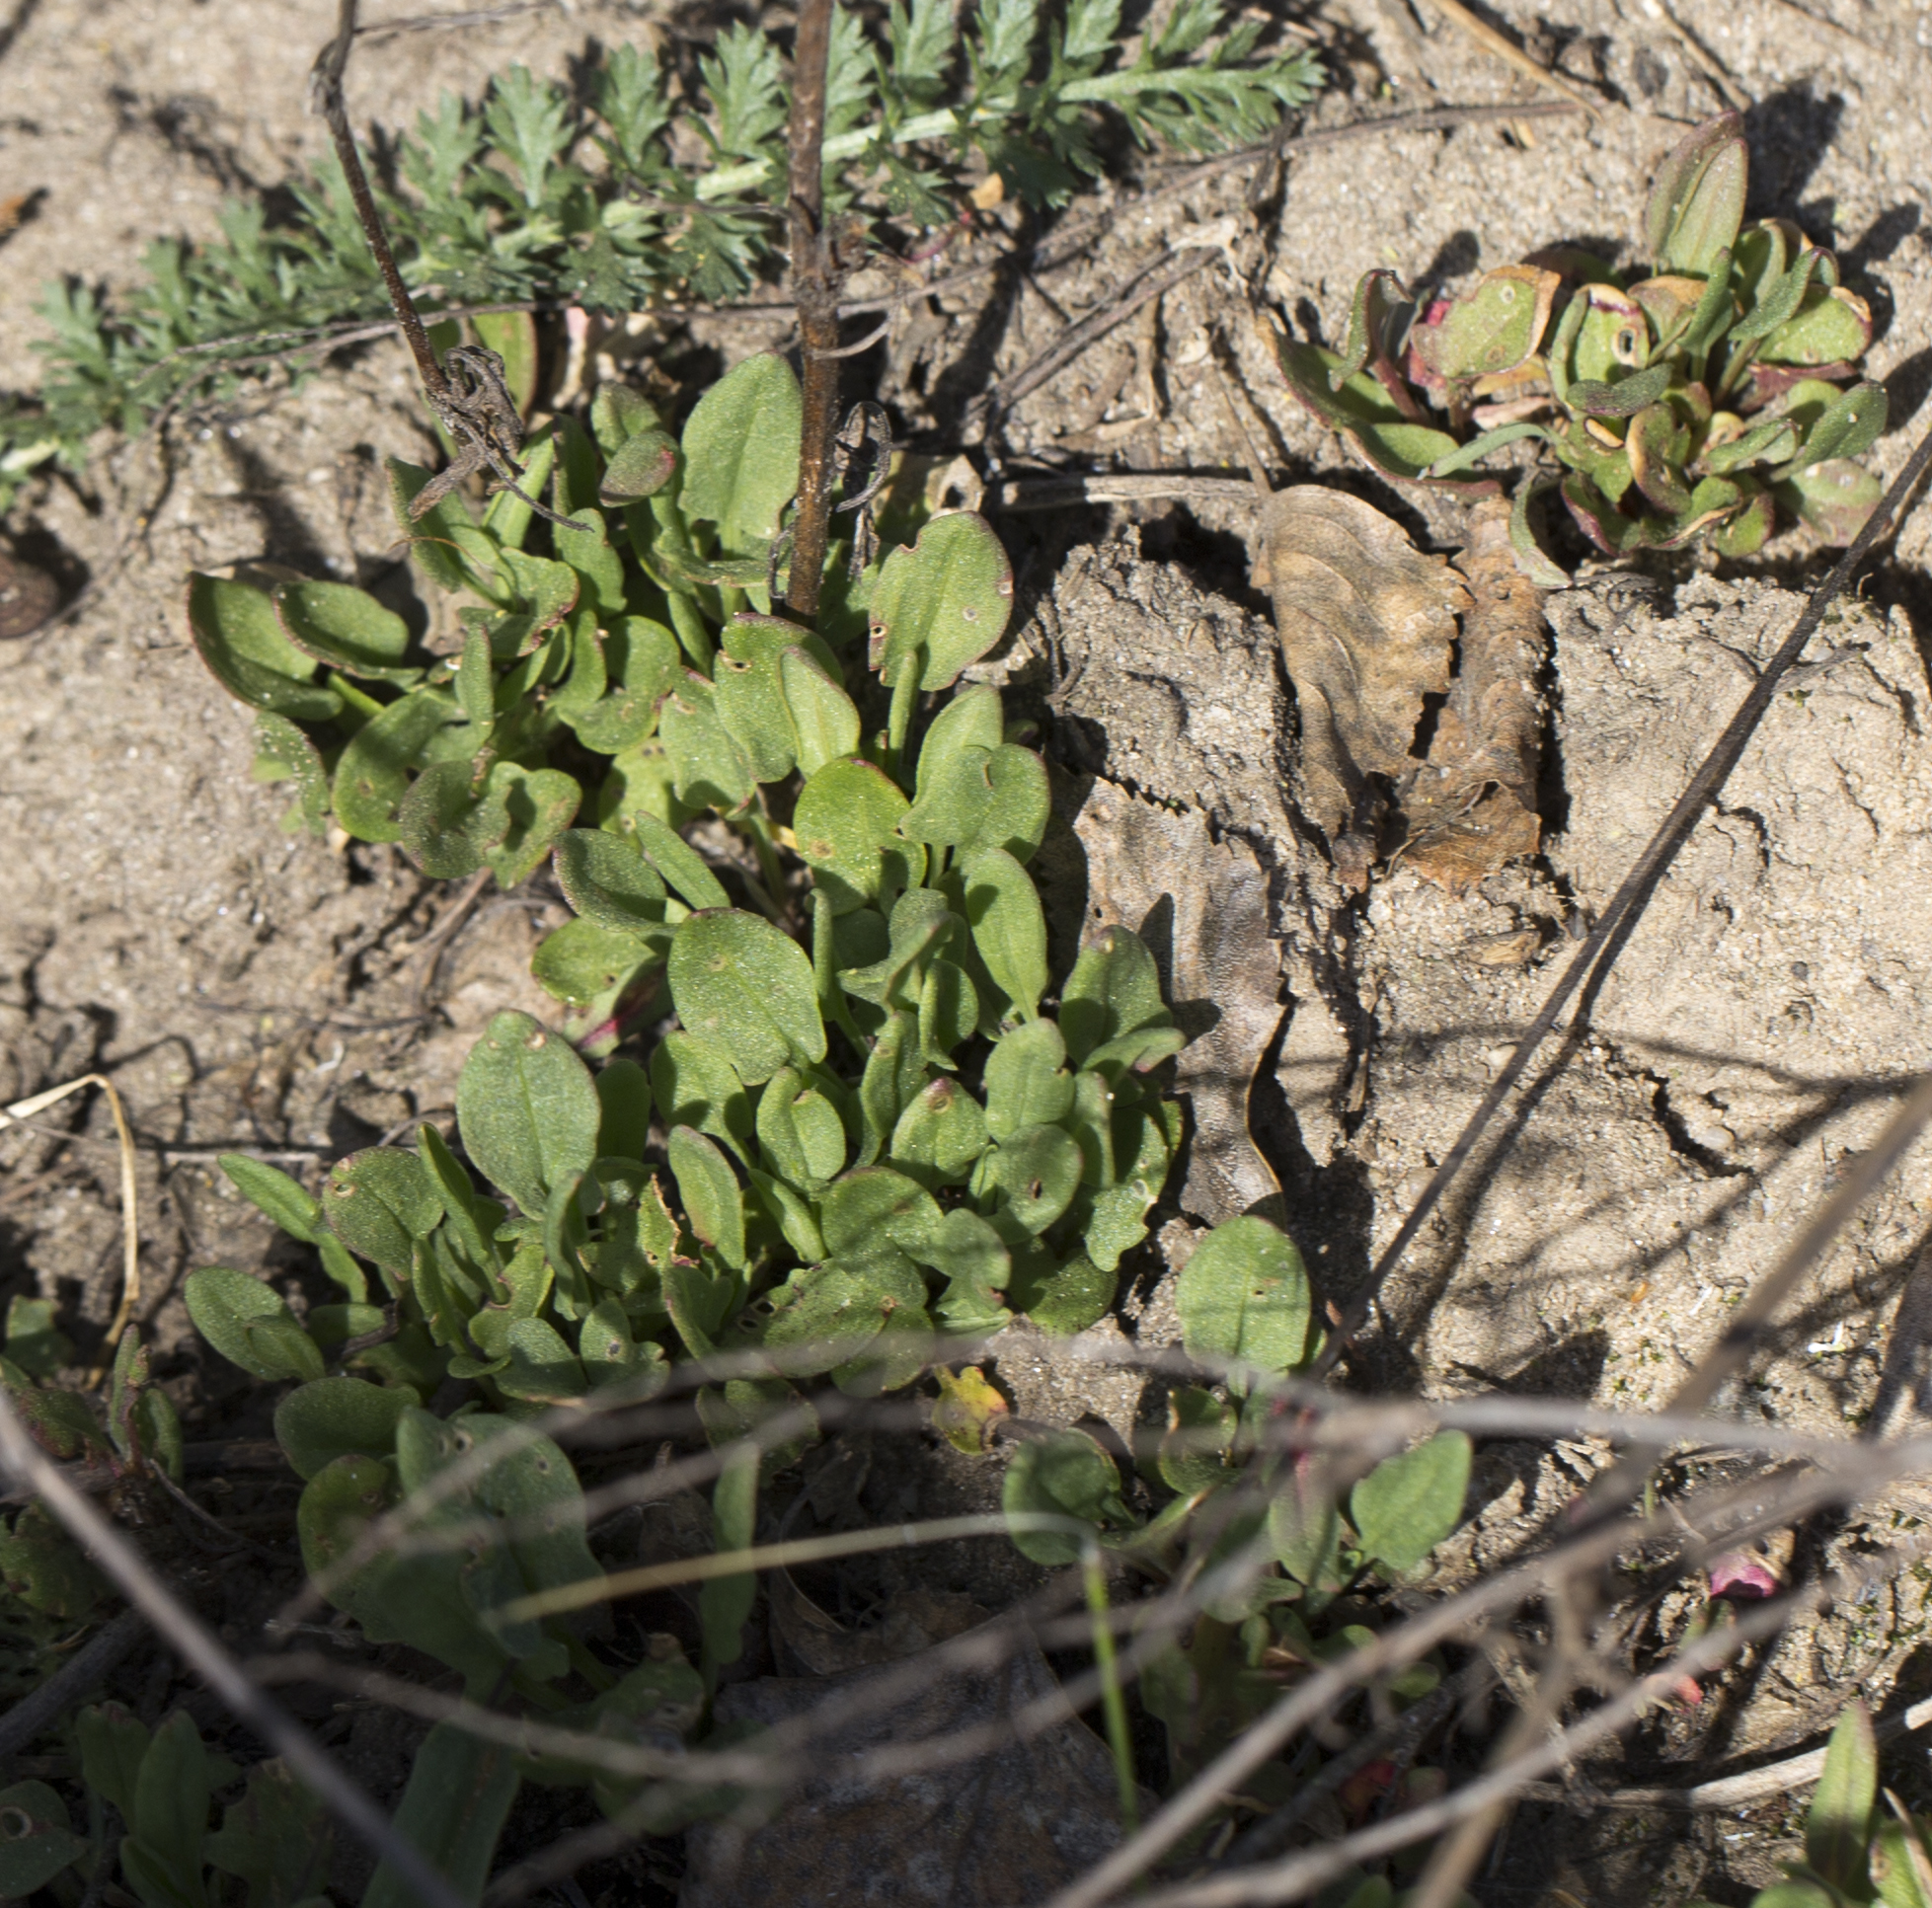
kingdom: Plantae
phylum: Tracheophyta
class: Magnoliopsida
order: Caryophyllales
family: Polygonaceae
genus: Rumex
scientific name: Rumex acetosella
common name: Common sheep sorrel
